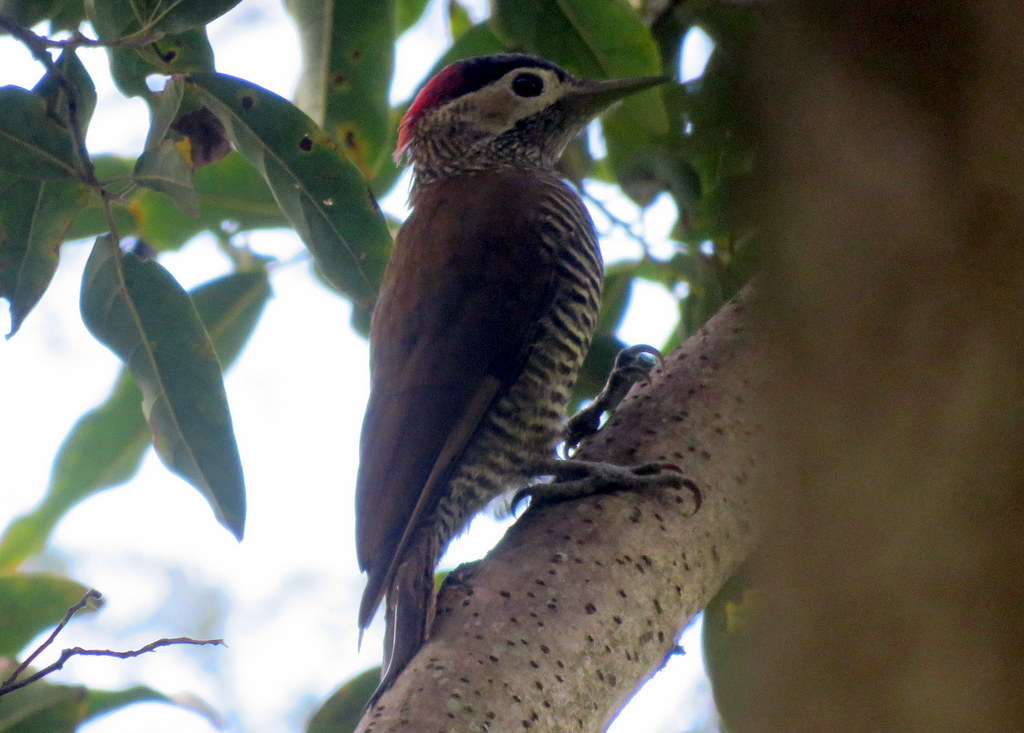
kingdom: Animalia
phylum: Chordata
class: Aves
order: Piciformes
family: Picidae
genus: Colaptes
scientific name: Colaptes rubiginosus
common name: Golden-olive woodpecker
